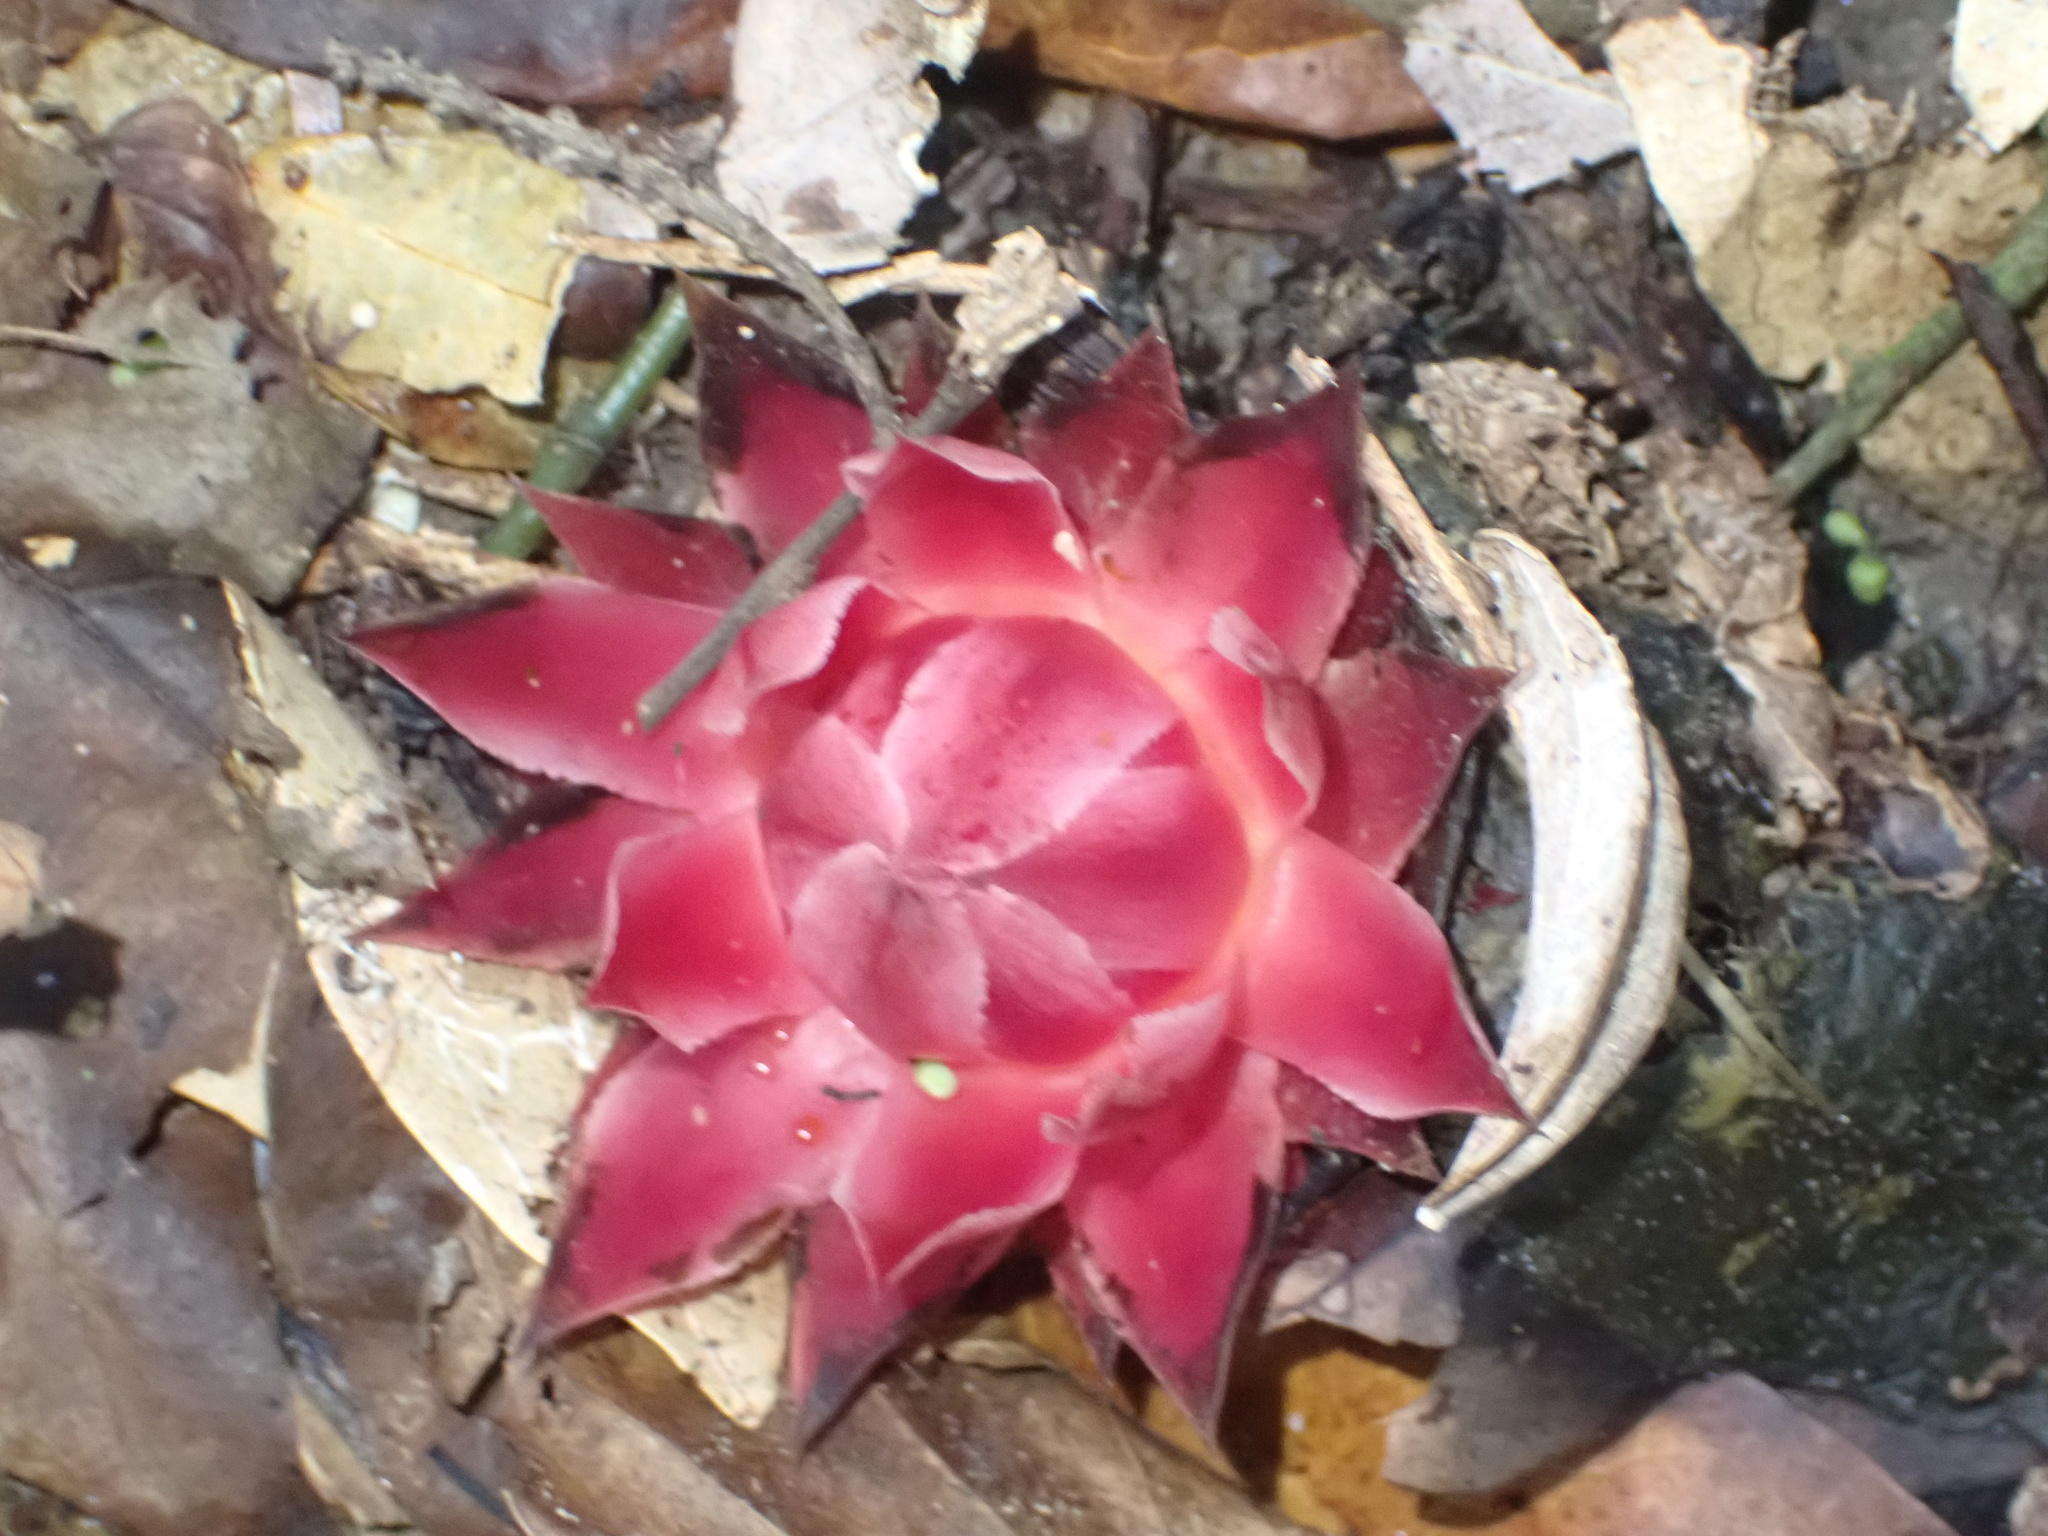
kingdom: Plantae
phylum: Tracheophyta
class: Magnoliopsida
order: Santalales
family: Balanophoraceae
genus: Thonningia
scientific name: Thonningia sanguinea
